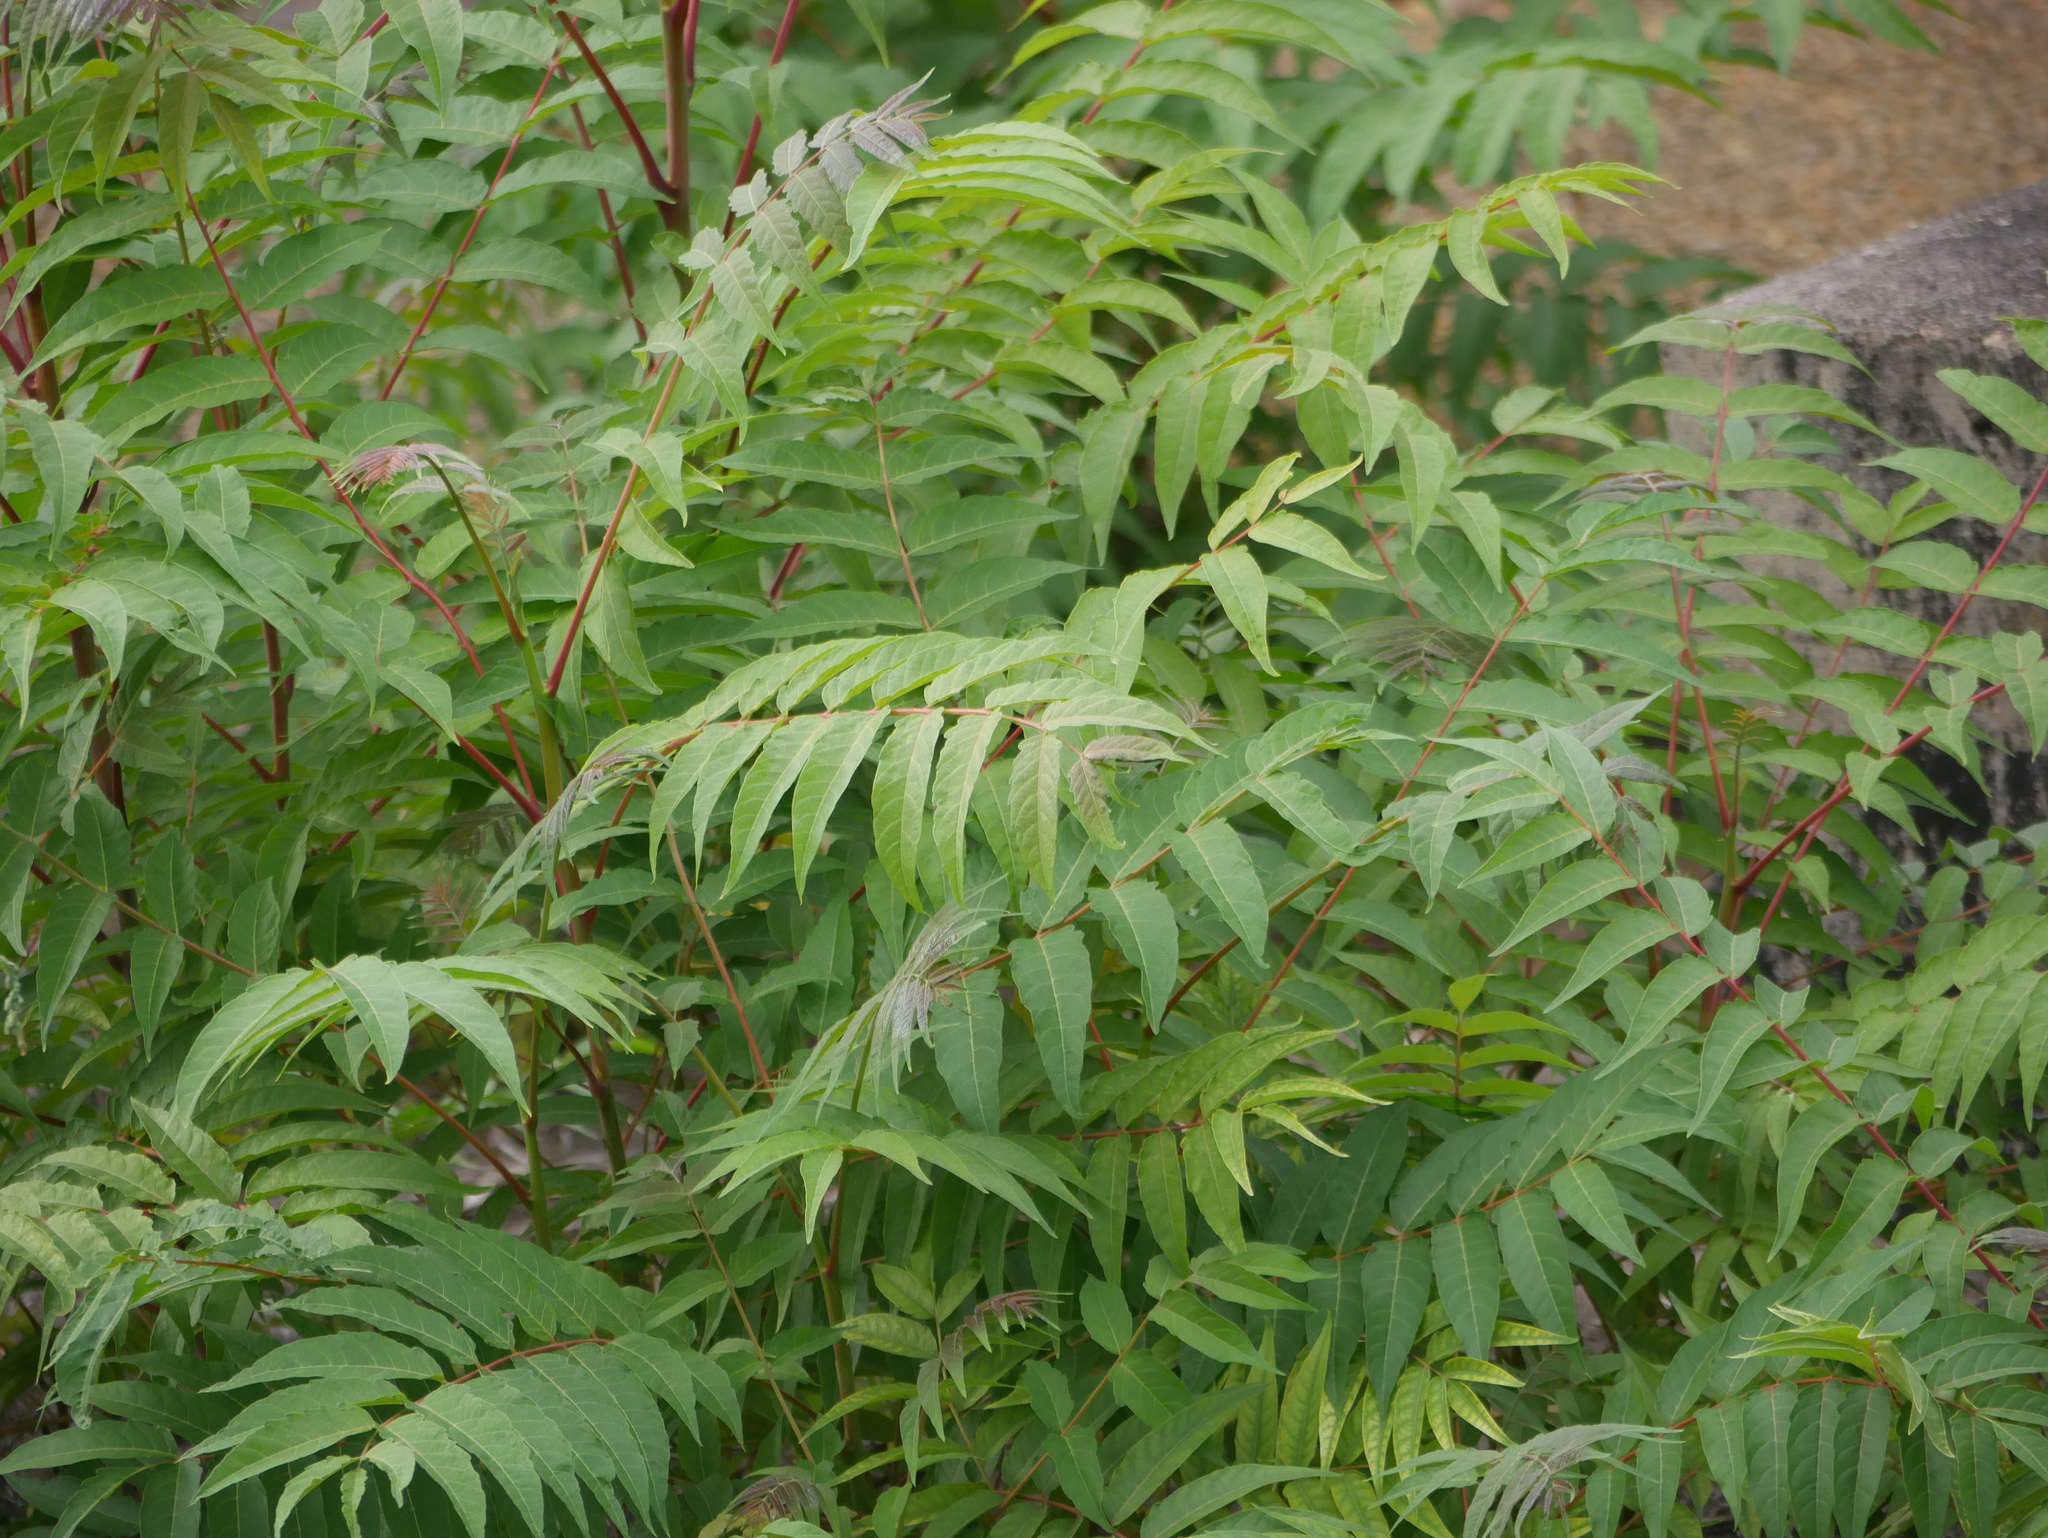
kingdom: Plantae
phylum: Tracheophyta
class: Magnoliopsida
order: Sapindales
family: Simaroubaceae
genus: Ailanthus
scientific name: Ailanthus altissima
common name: Tree-of-heaven
